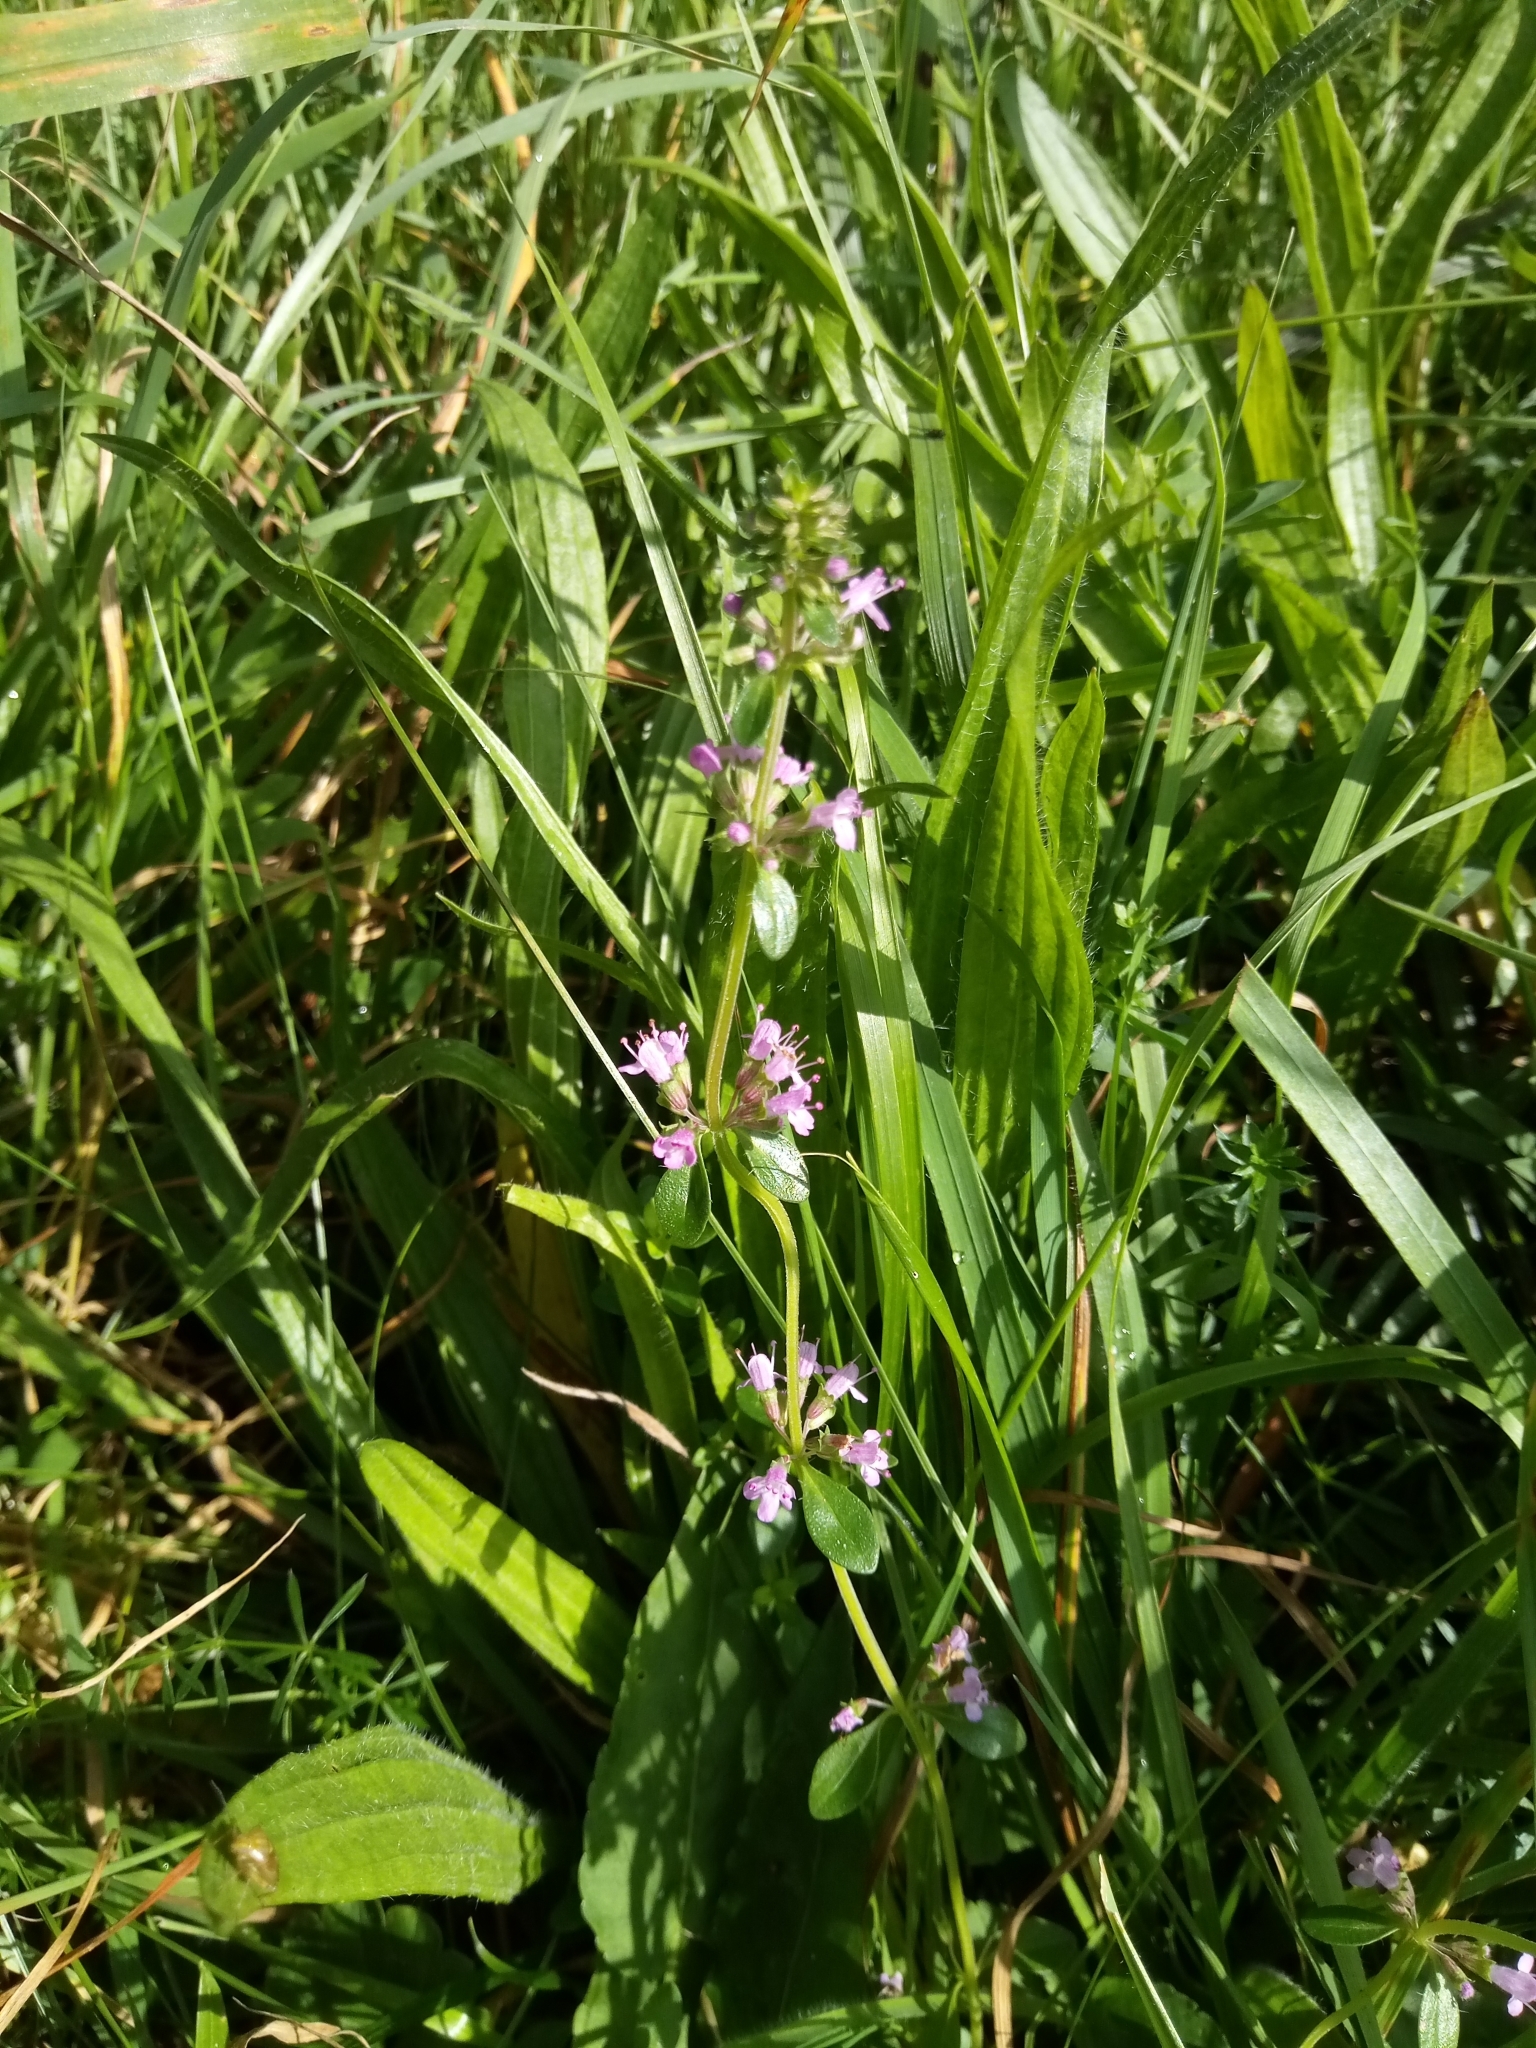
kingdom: Plantae
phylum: Tracheophyta
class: Magnoliopsida
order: Lamiales
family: Lamiaceae
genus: Thymus
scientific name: Thymus pulegioides
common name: Large thyme
